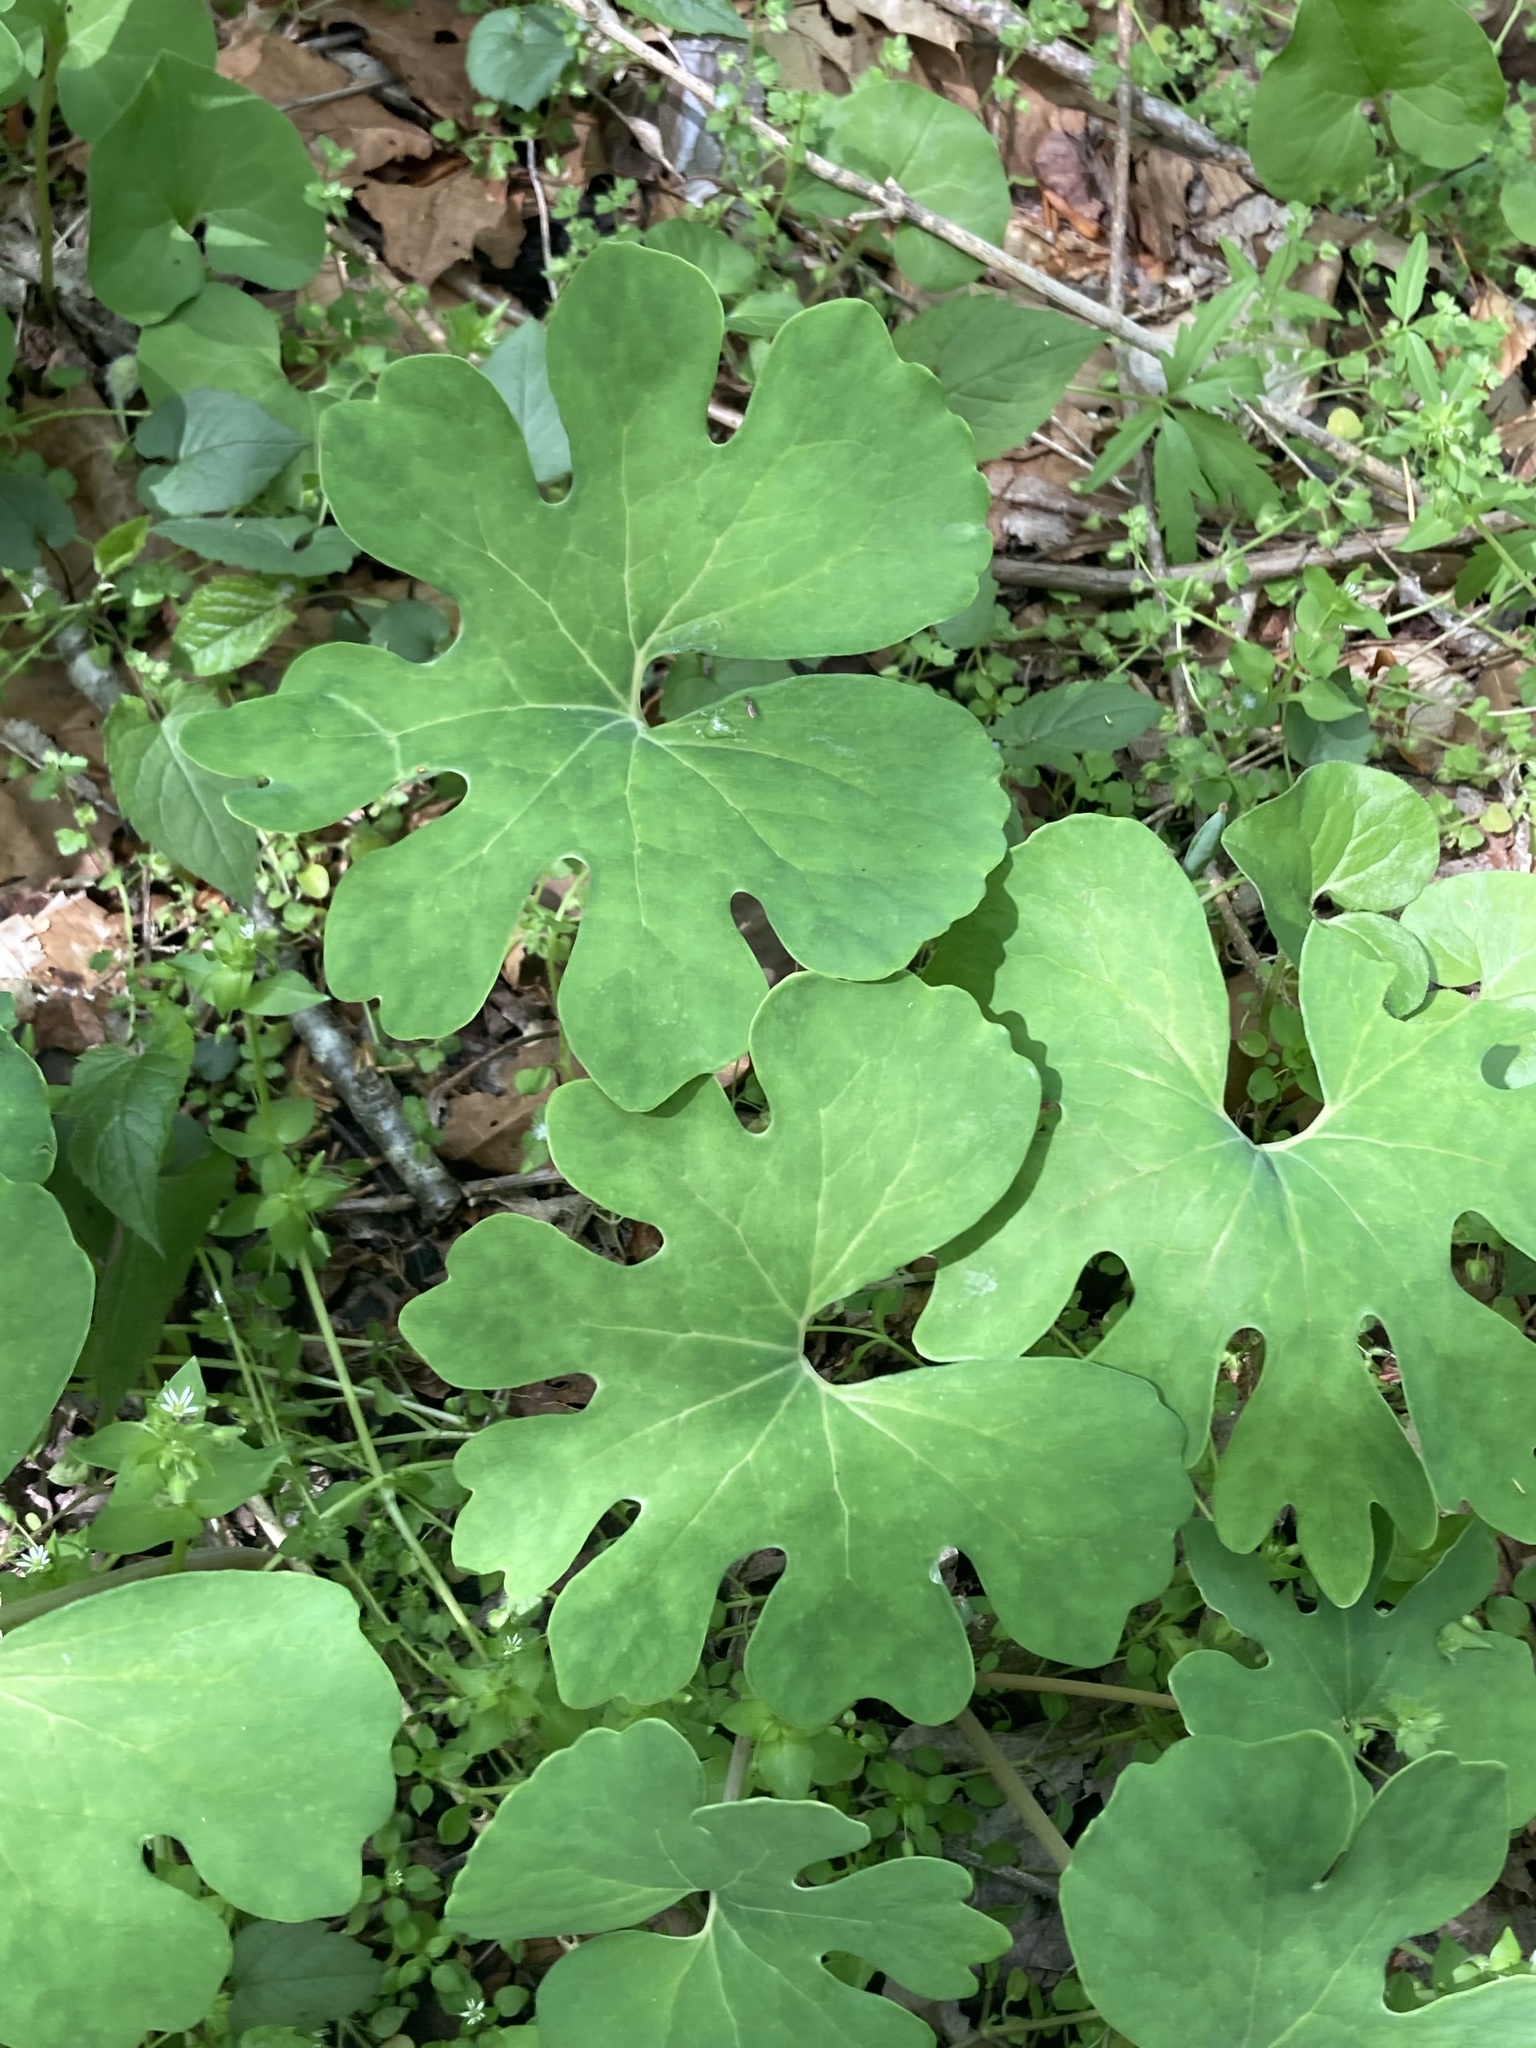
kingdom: Plantae
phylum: Tracheophyta
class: Magnoliopsida
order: Ranunculales
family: Papaveraceae
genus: Sanguinaria
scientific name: Sanguinaria canadensis
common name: Bloodroot
